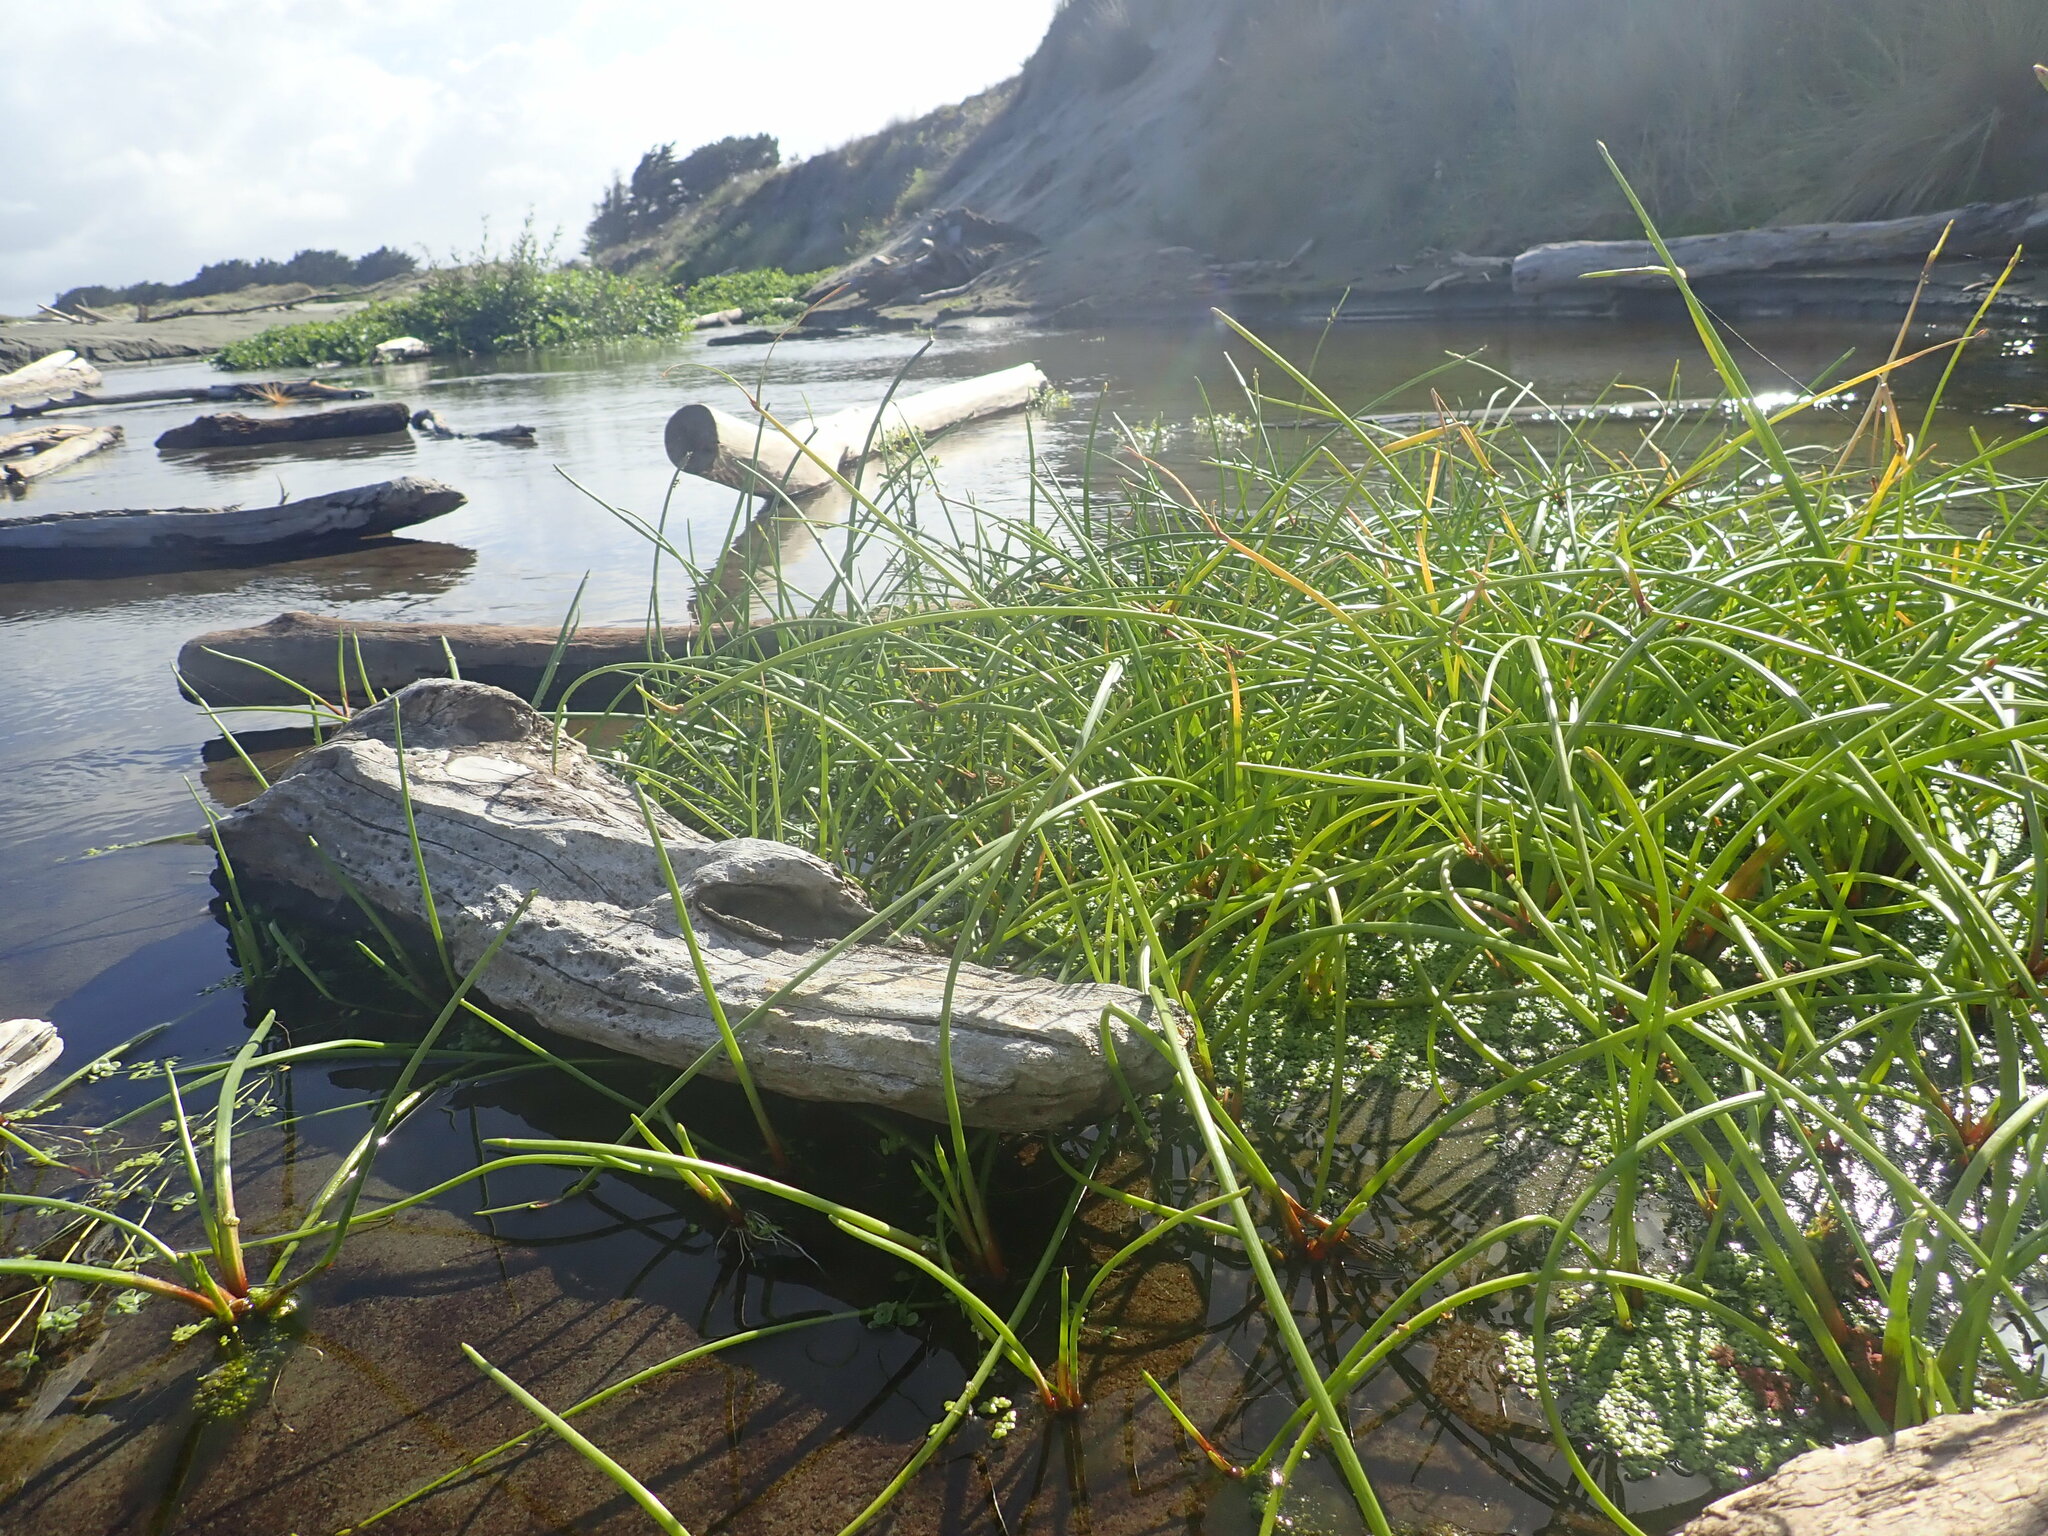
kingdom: Plantae
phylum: Tracheophyta
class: Liliopsida
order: Poales
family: Cyperaceae
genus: Isolepis
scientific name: Isolepis prolifera
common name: Proliferating bulrush
